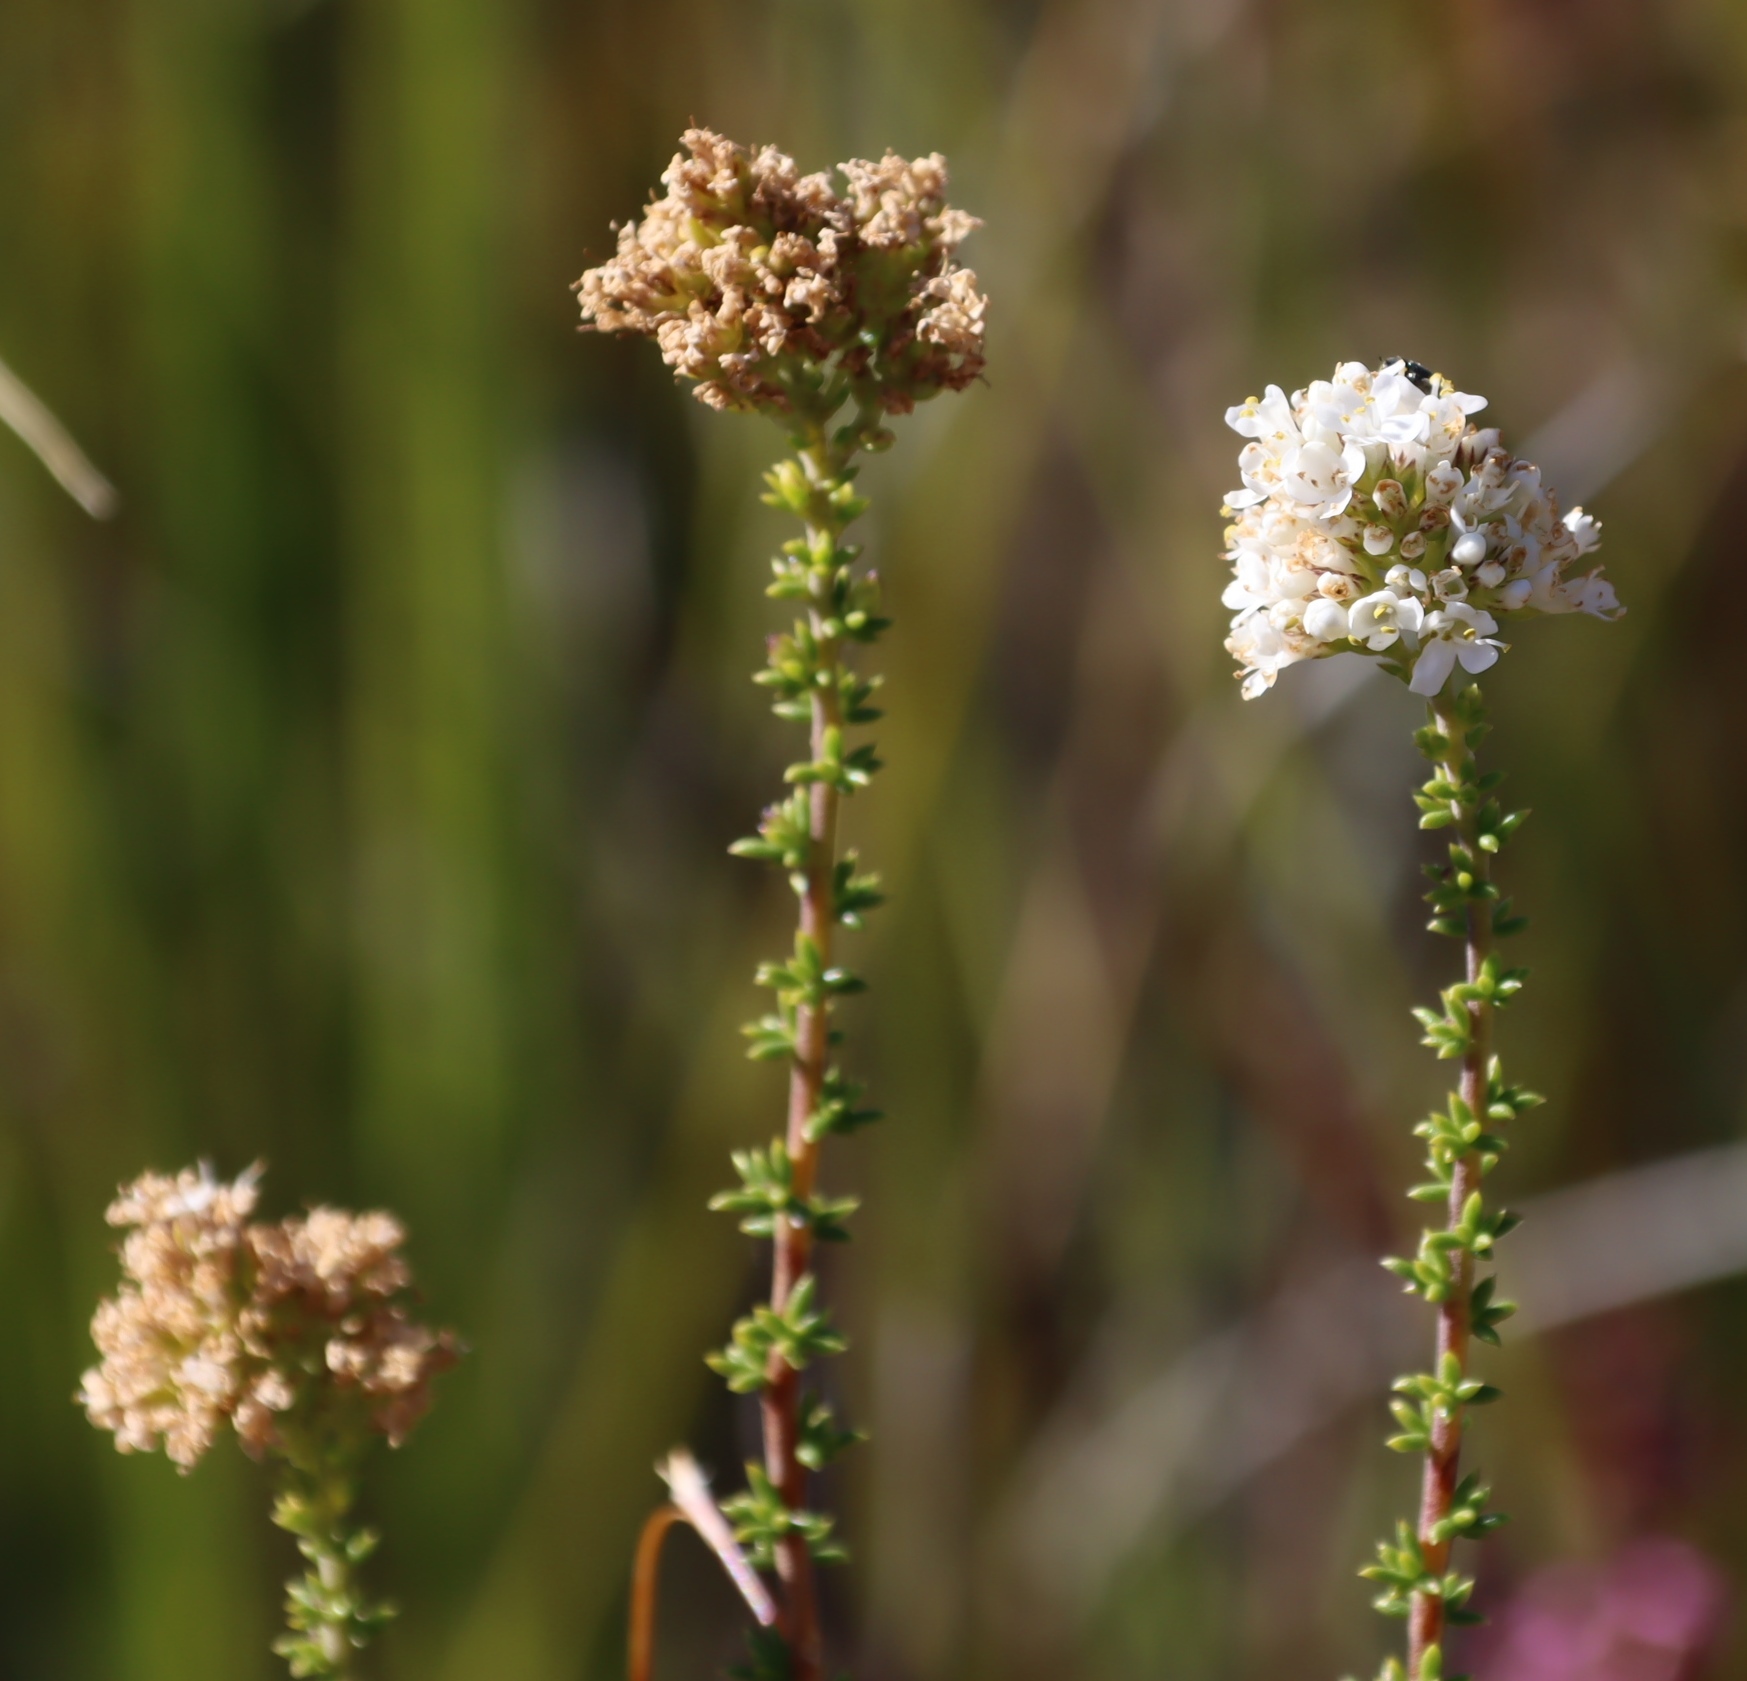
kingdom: Plantae
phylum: Tracheophyta
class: Magnoliopsida
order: Lamiales
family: Scrophulariaceae
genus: Selago
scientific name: Selago dolosa
